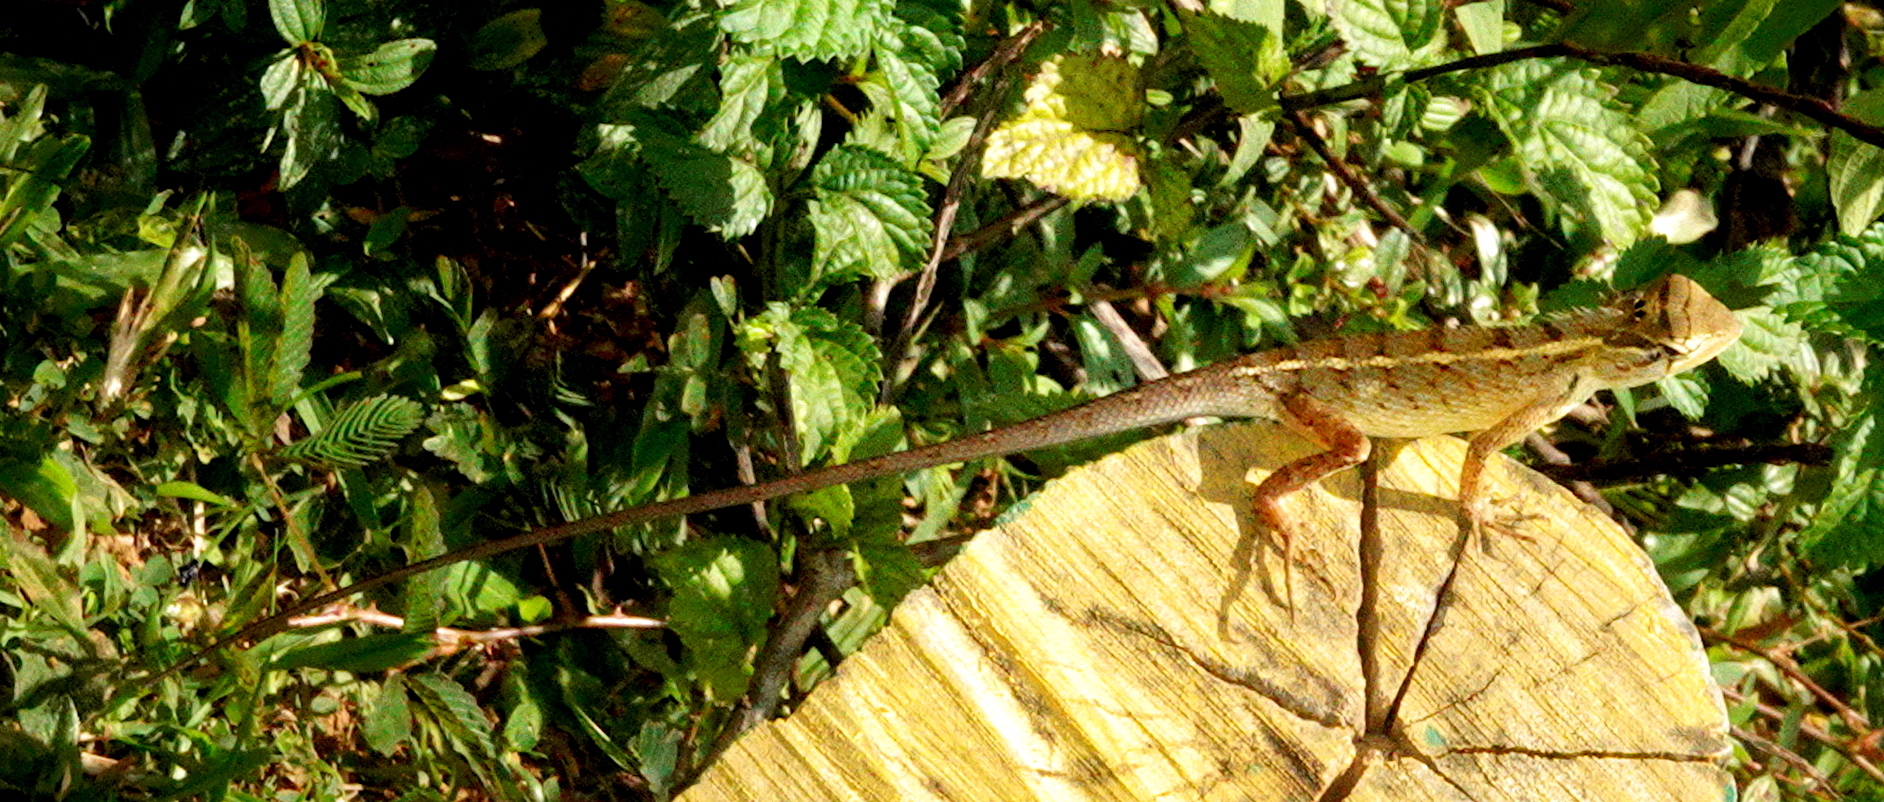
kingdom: Animalia
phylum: Chordata
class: Squamata
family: Agamidae
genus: Calotes
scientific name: Calotes versicolor
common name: Oriental garden lizard
